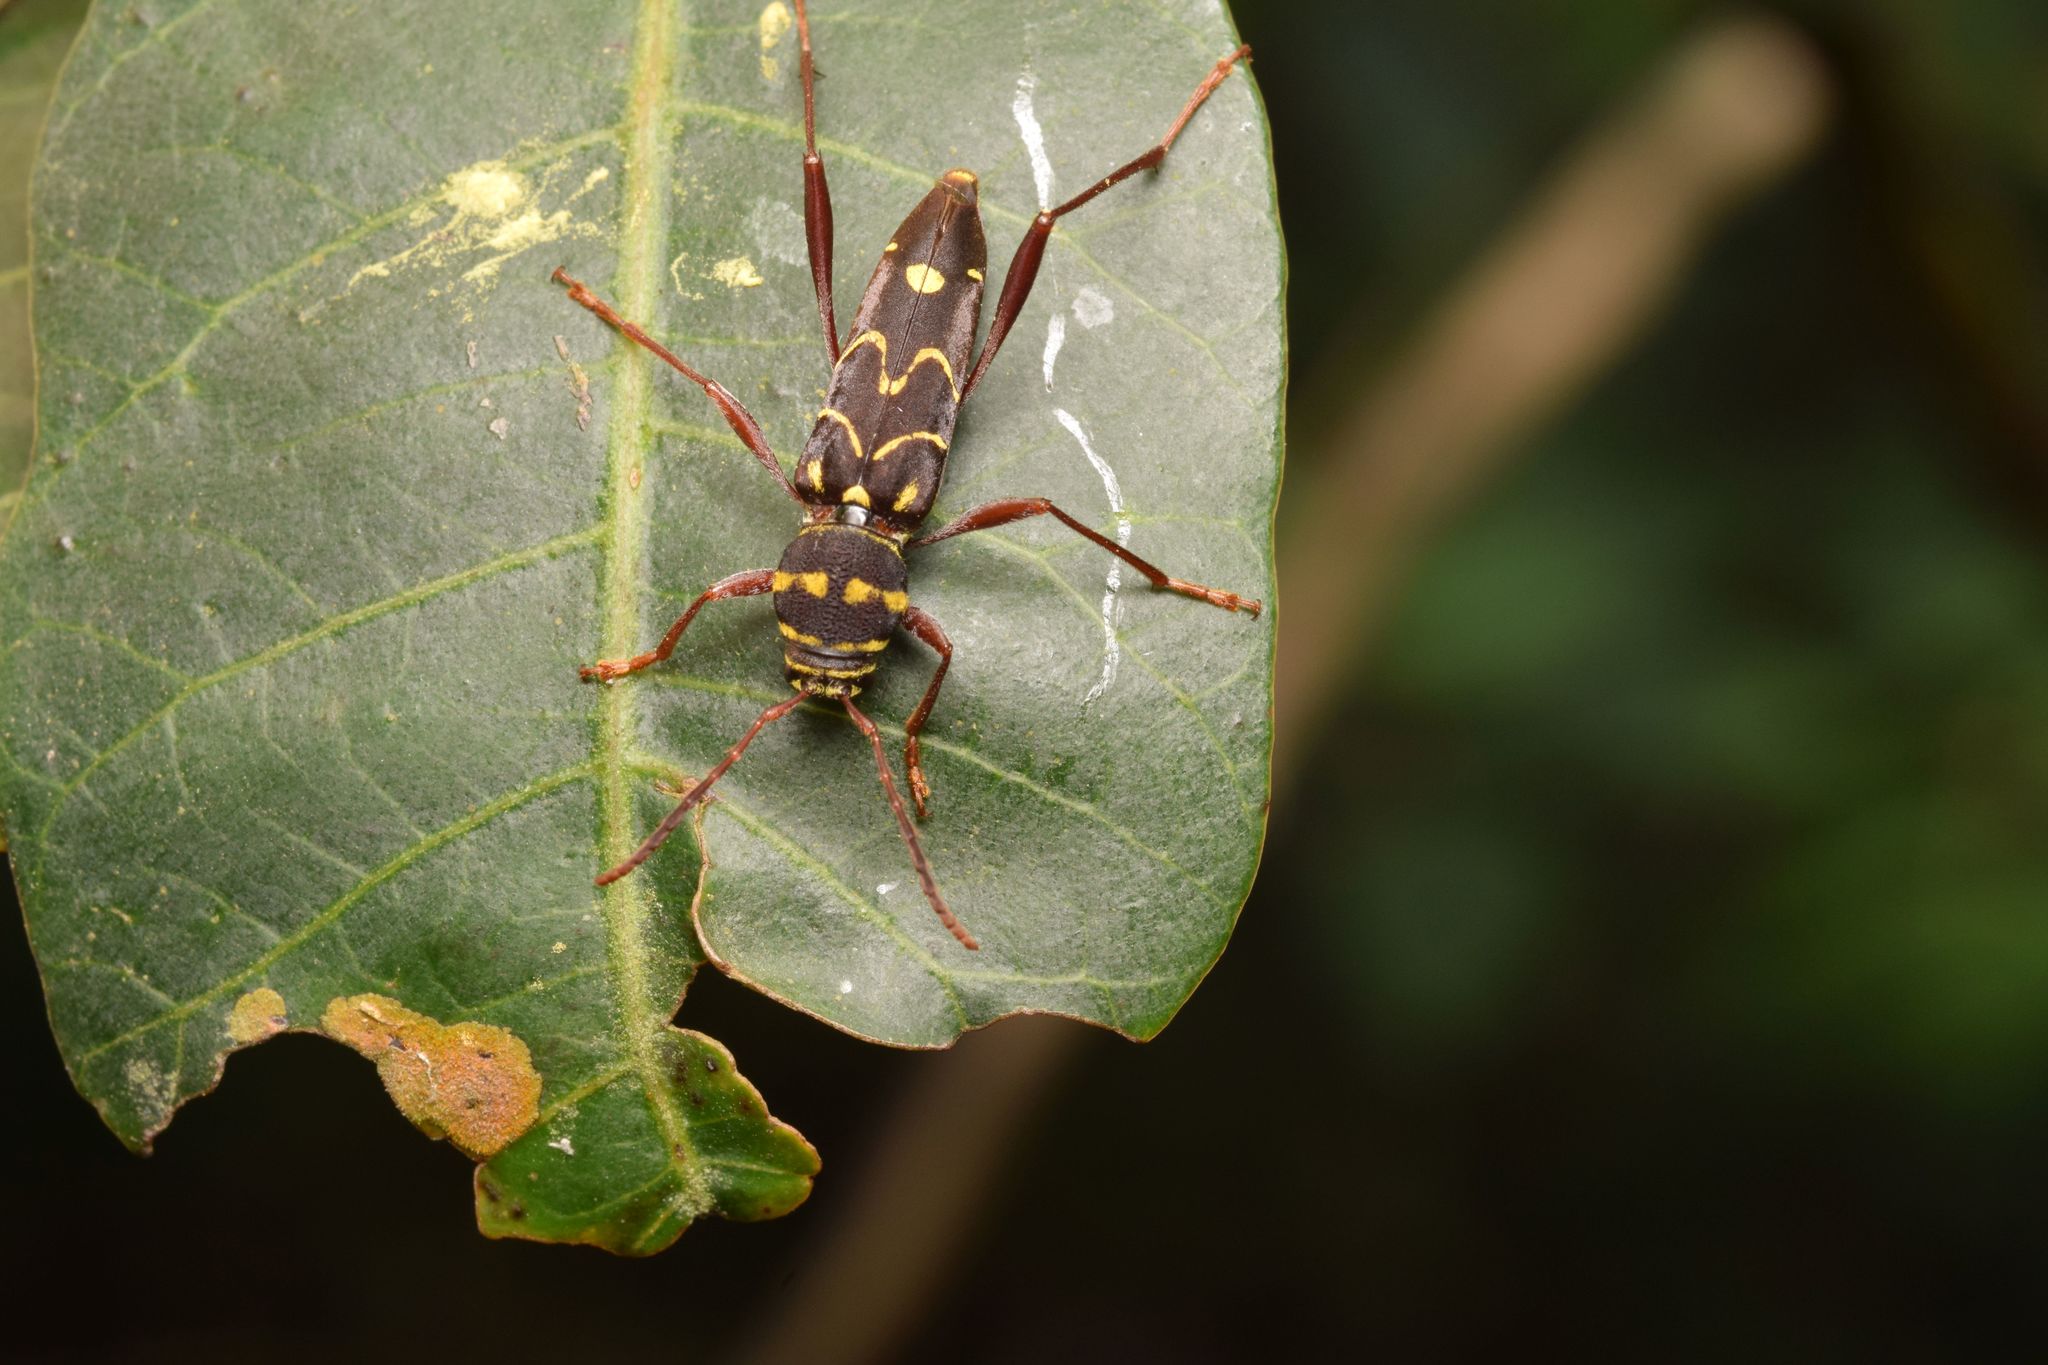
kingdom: Animalia
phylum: Arthropoda
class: Insecta
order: Coleoptera
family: Cerambycidae
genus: Cotyclytus
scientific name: Cotyclytus curvatus
